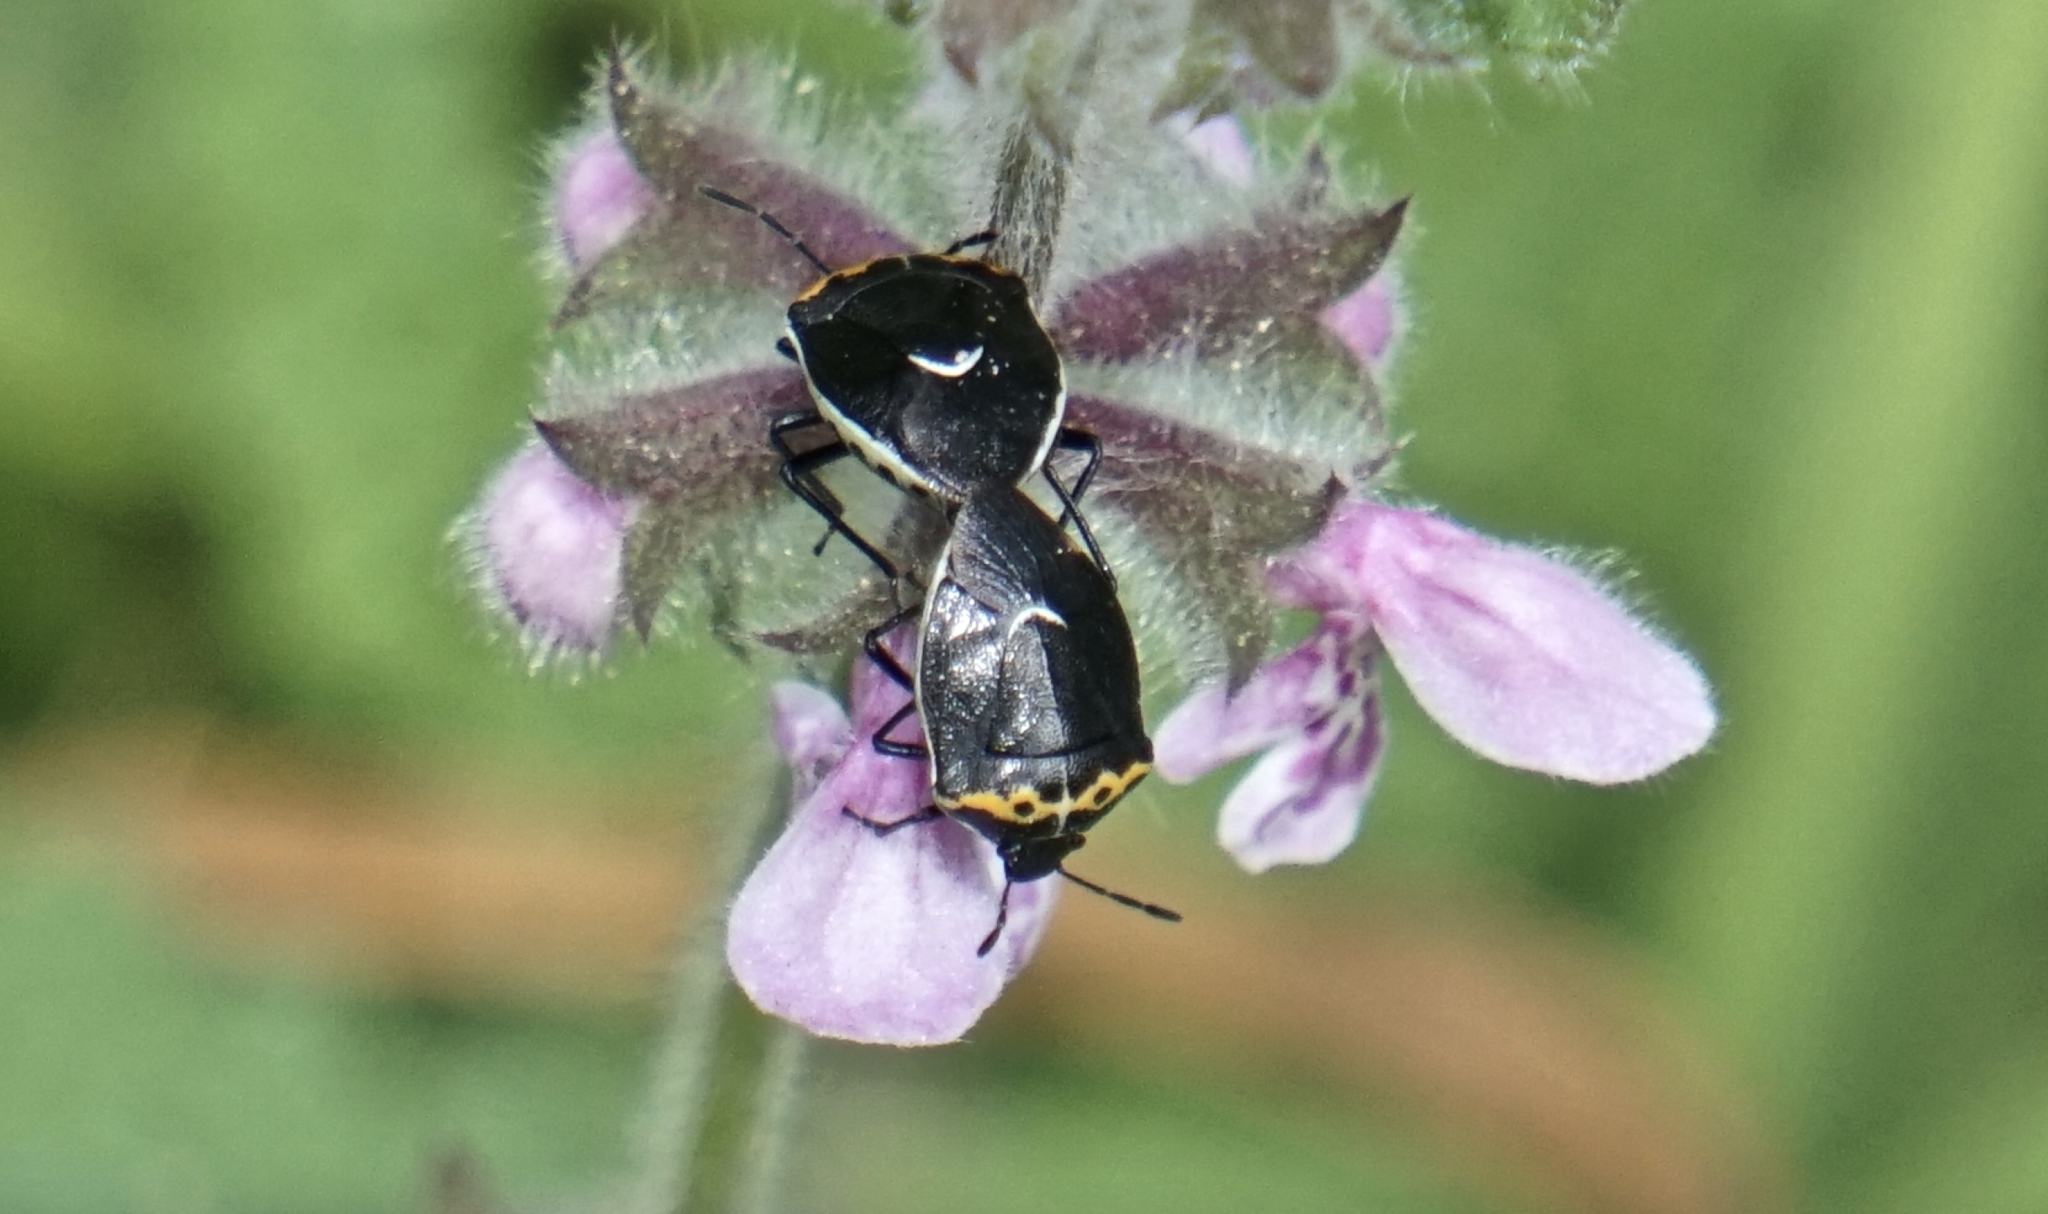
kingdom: Animalia
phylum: Arthropoda
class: Insecta
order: Hemiptera
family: Pentatomidae
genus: Cosmopepla
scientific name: Cosmopepla conspicillaris
